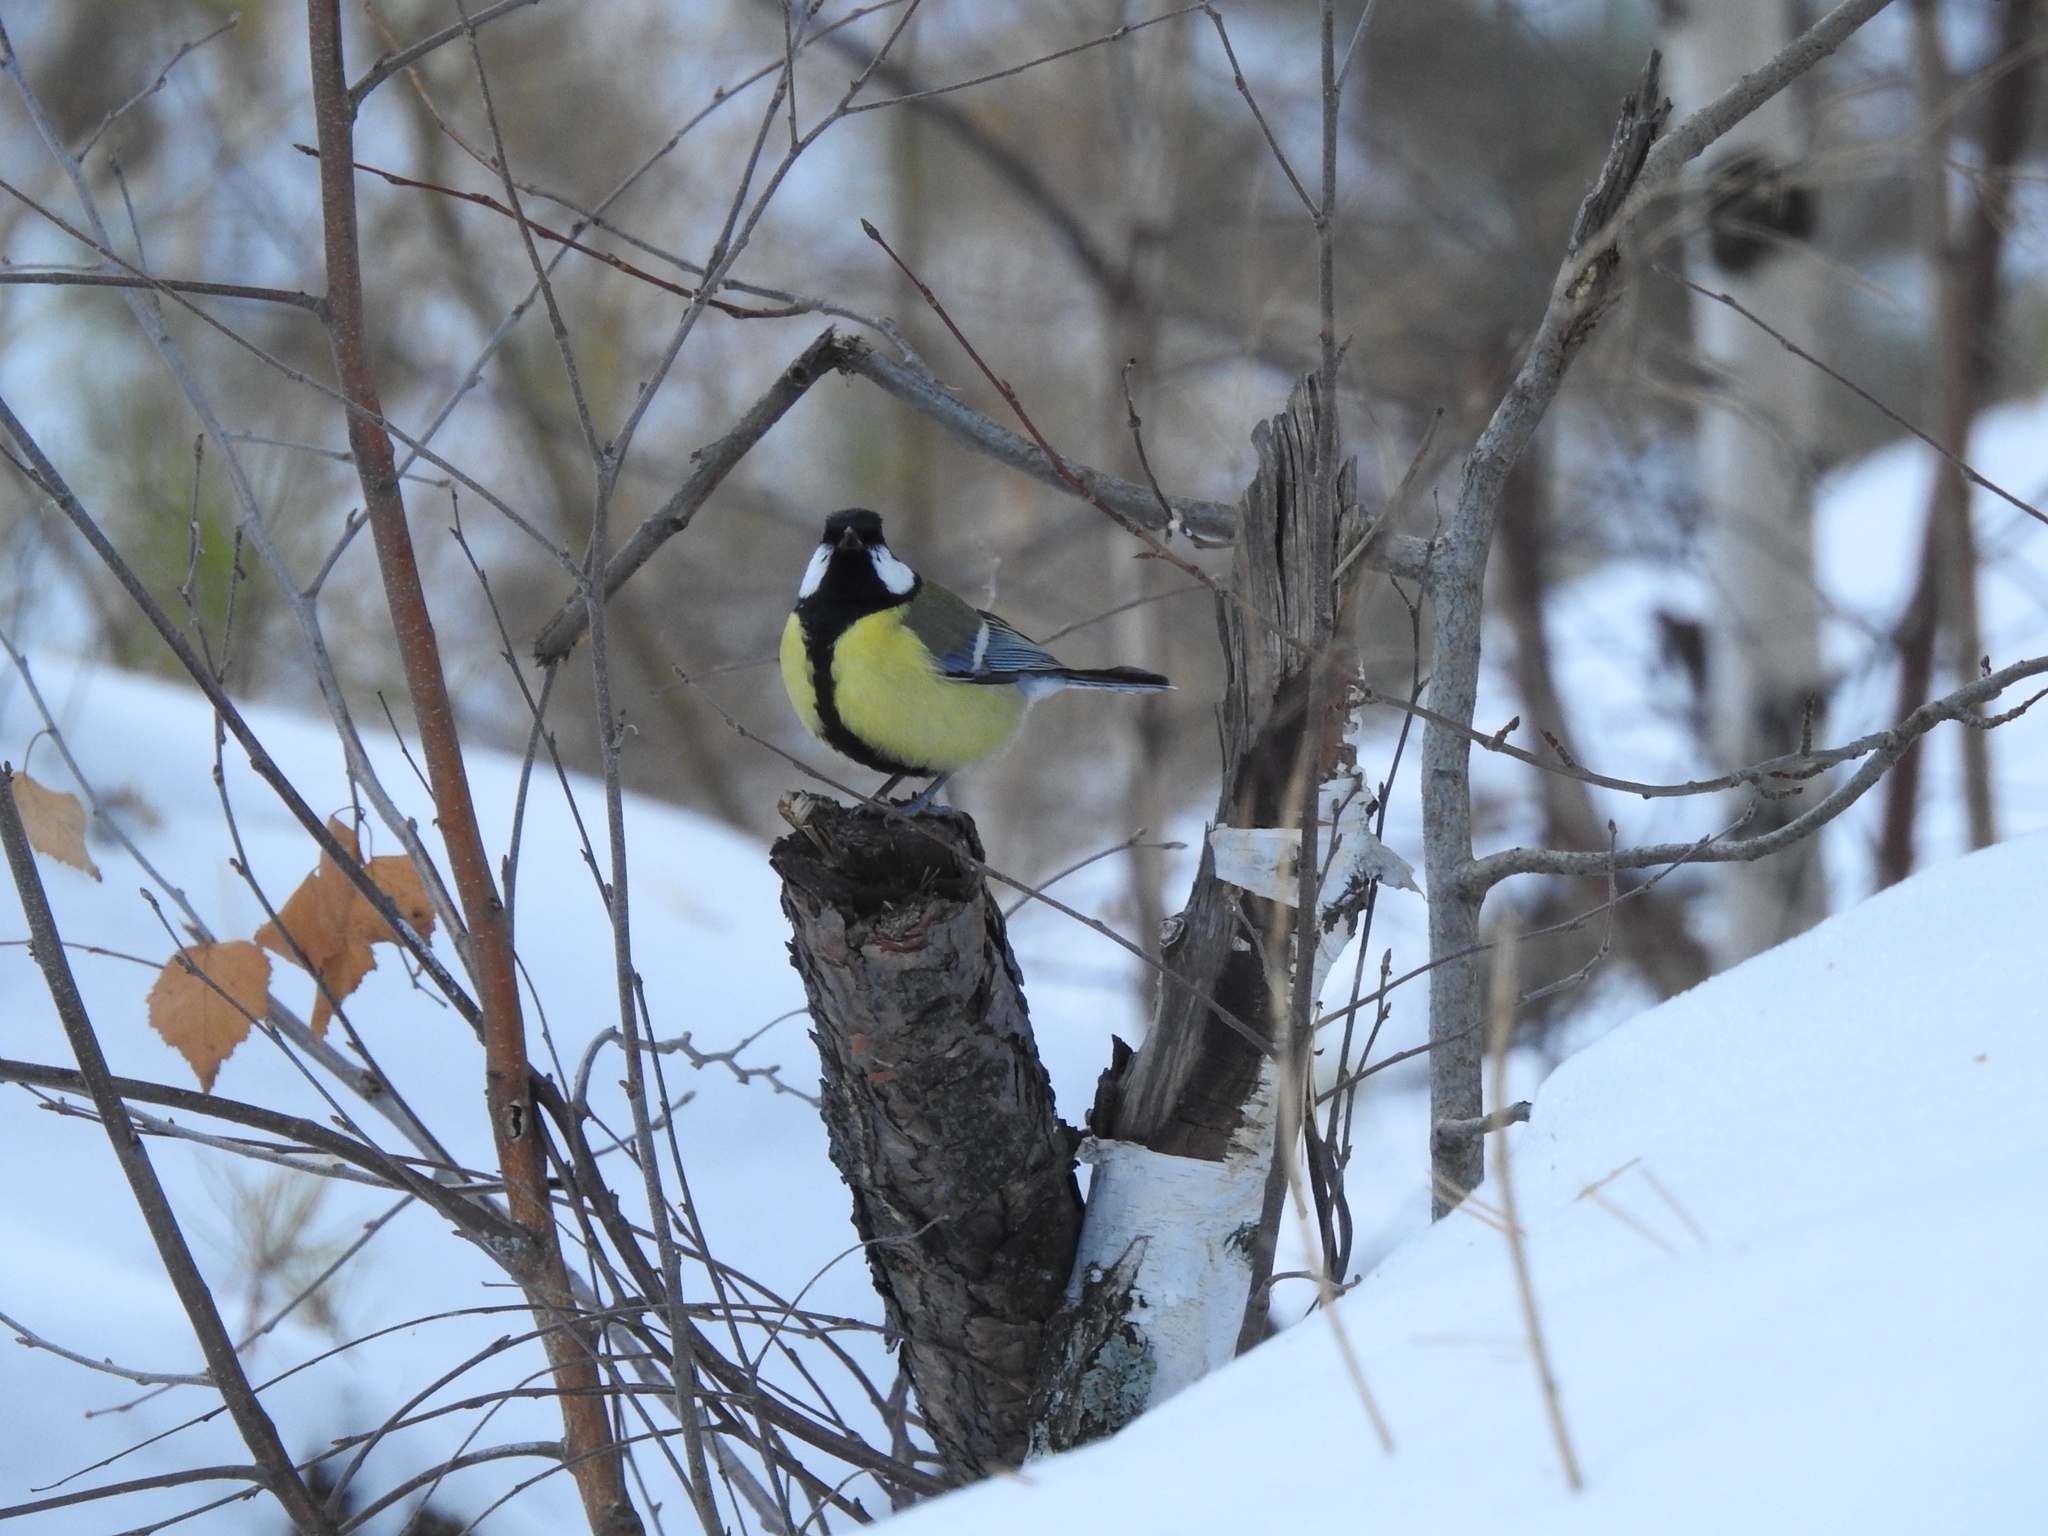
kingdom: Animalia
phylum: Chordata
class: Aves
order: Passeriformes
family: Paridae
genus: Parus
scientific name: Parus major
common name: Great tit
